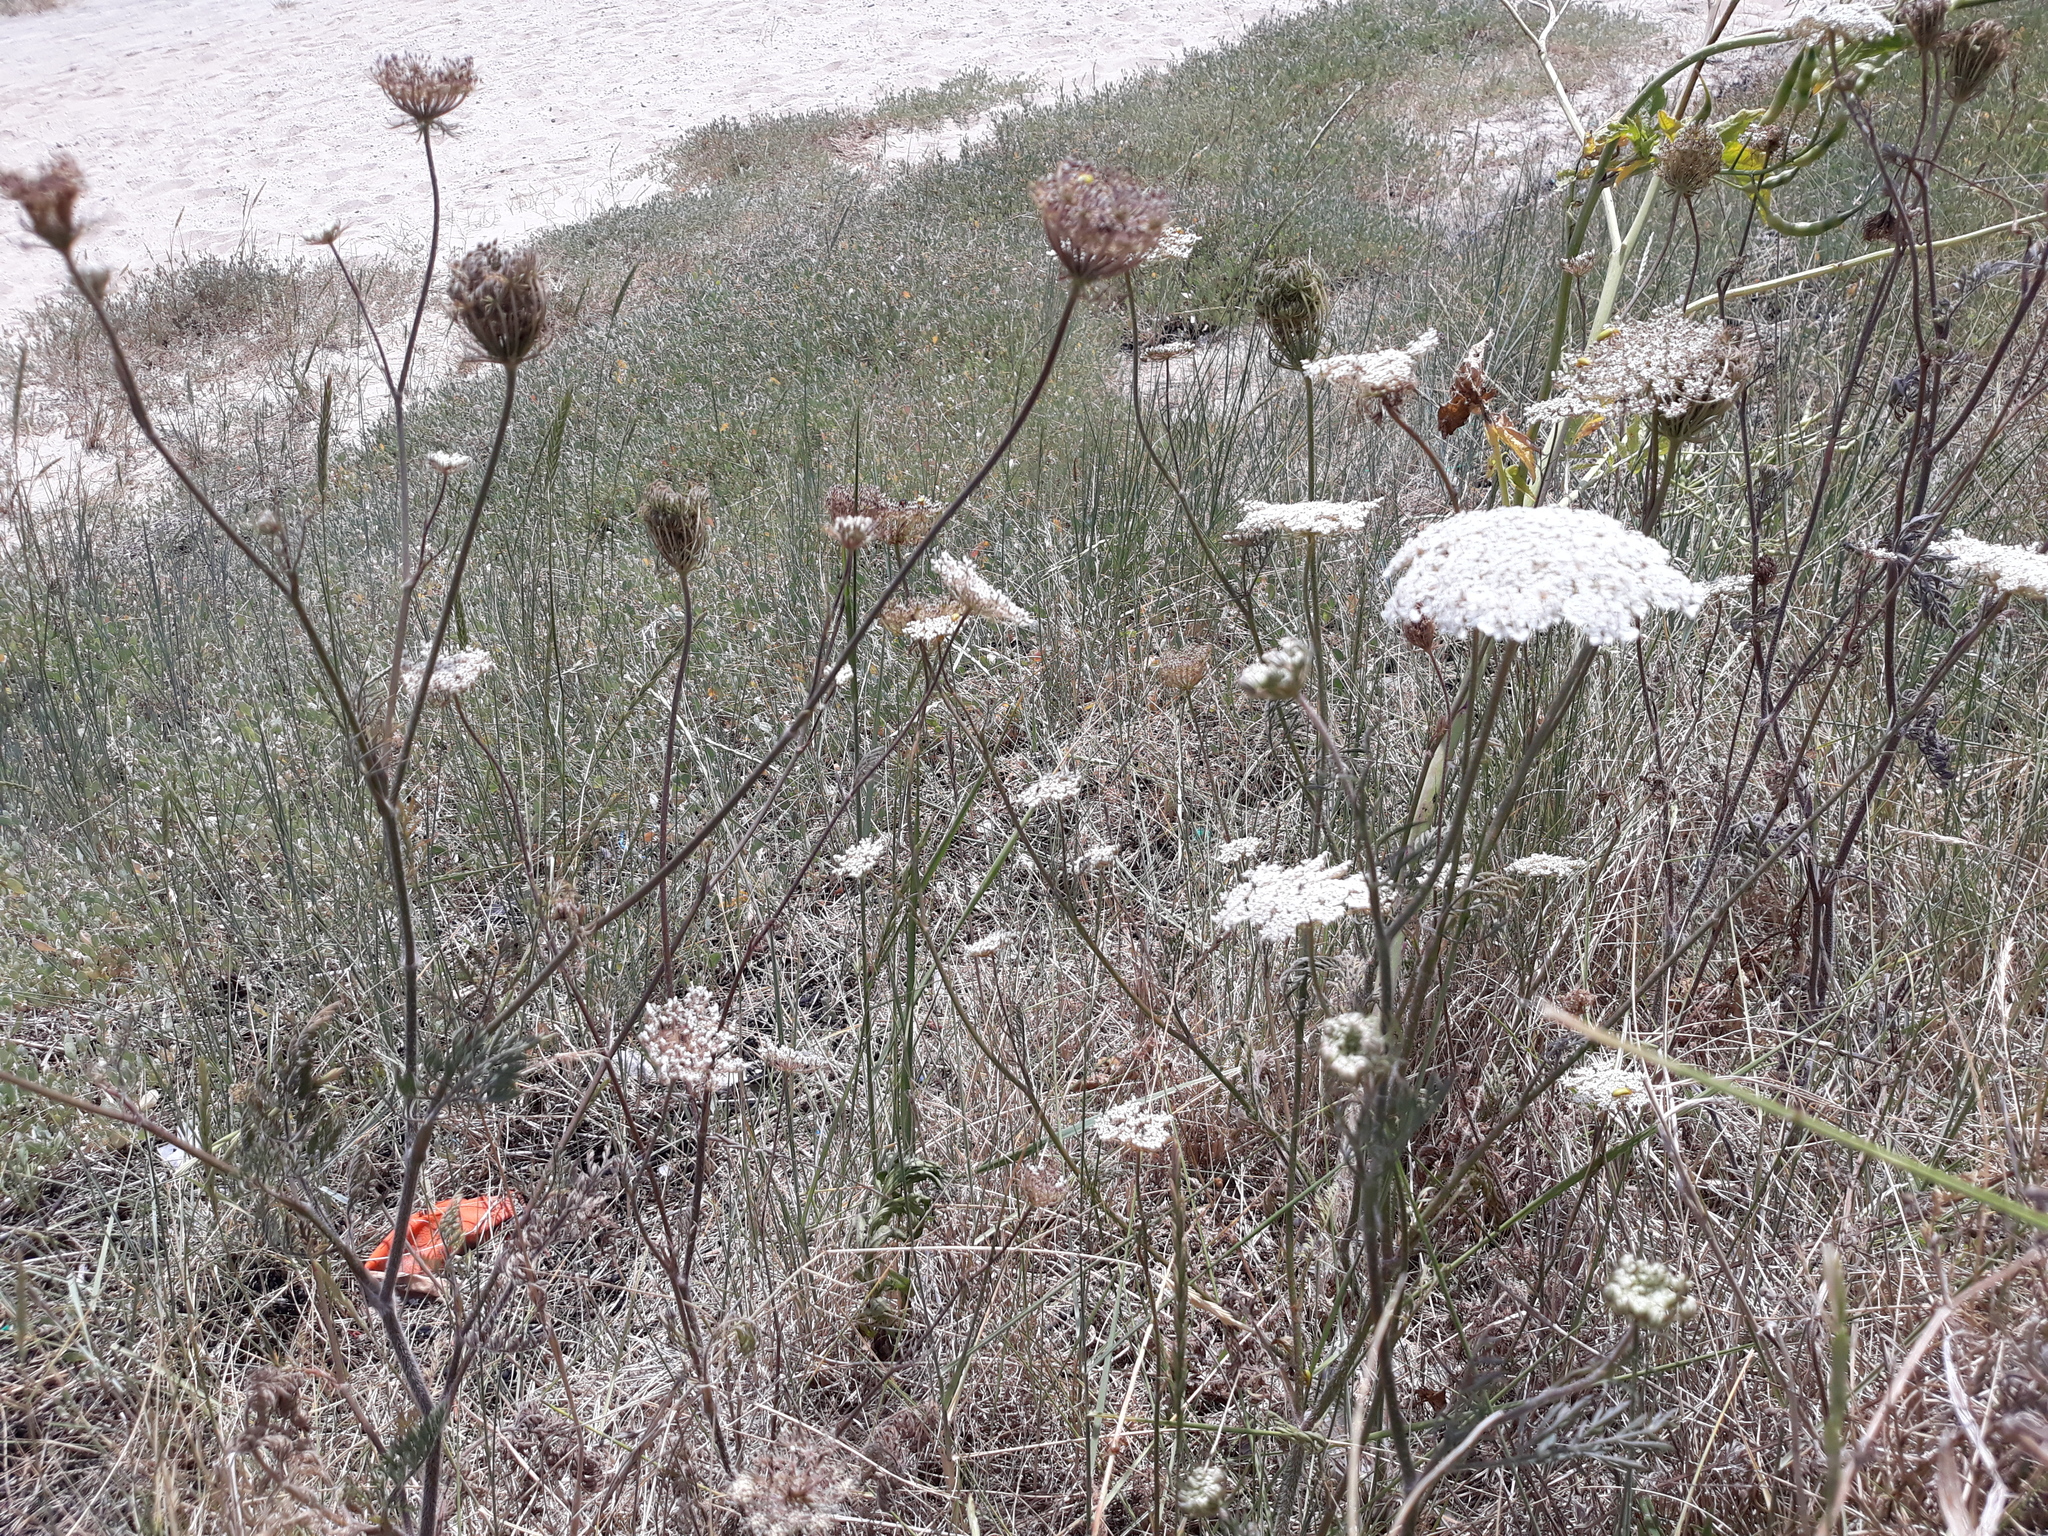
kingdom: Plantae
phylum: Tracheophyta
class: Magnoliopsida
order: Apiales
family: Apiaceae
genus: Daucus
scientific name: Daucus carota
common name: Wild carrot
